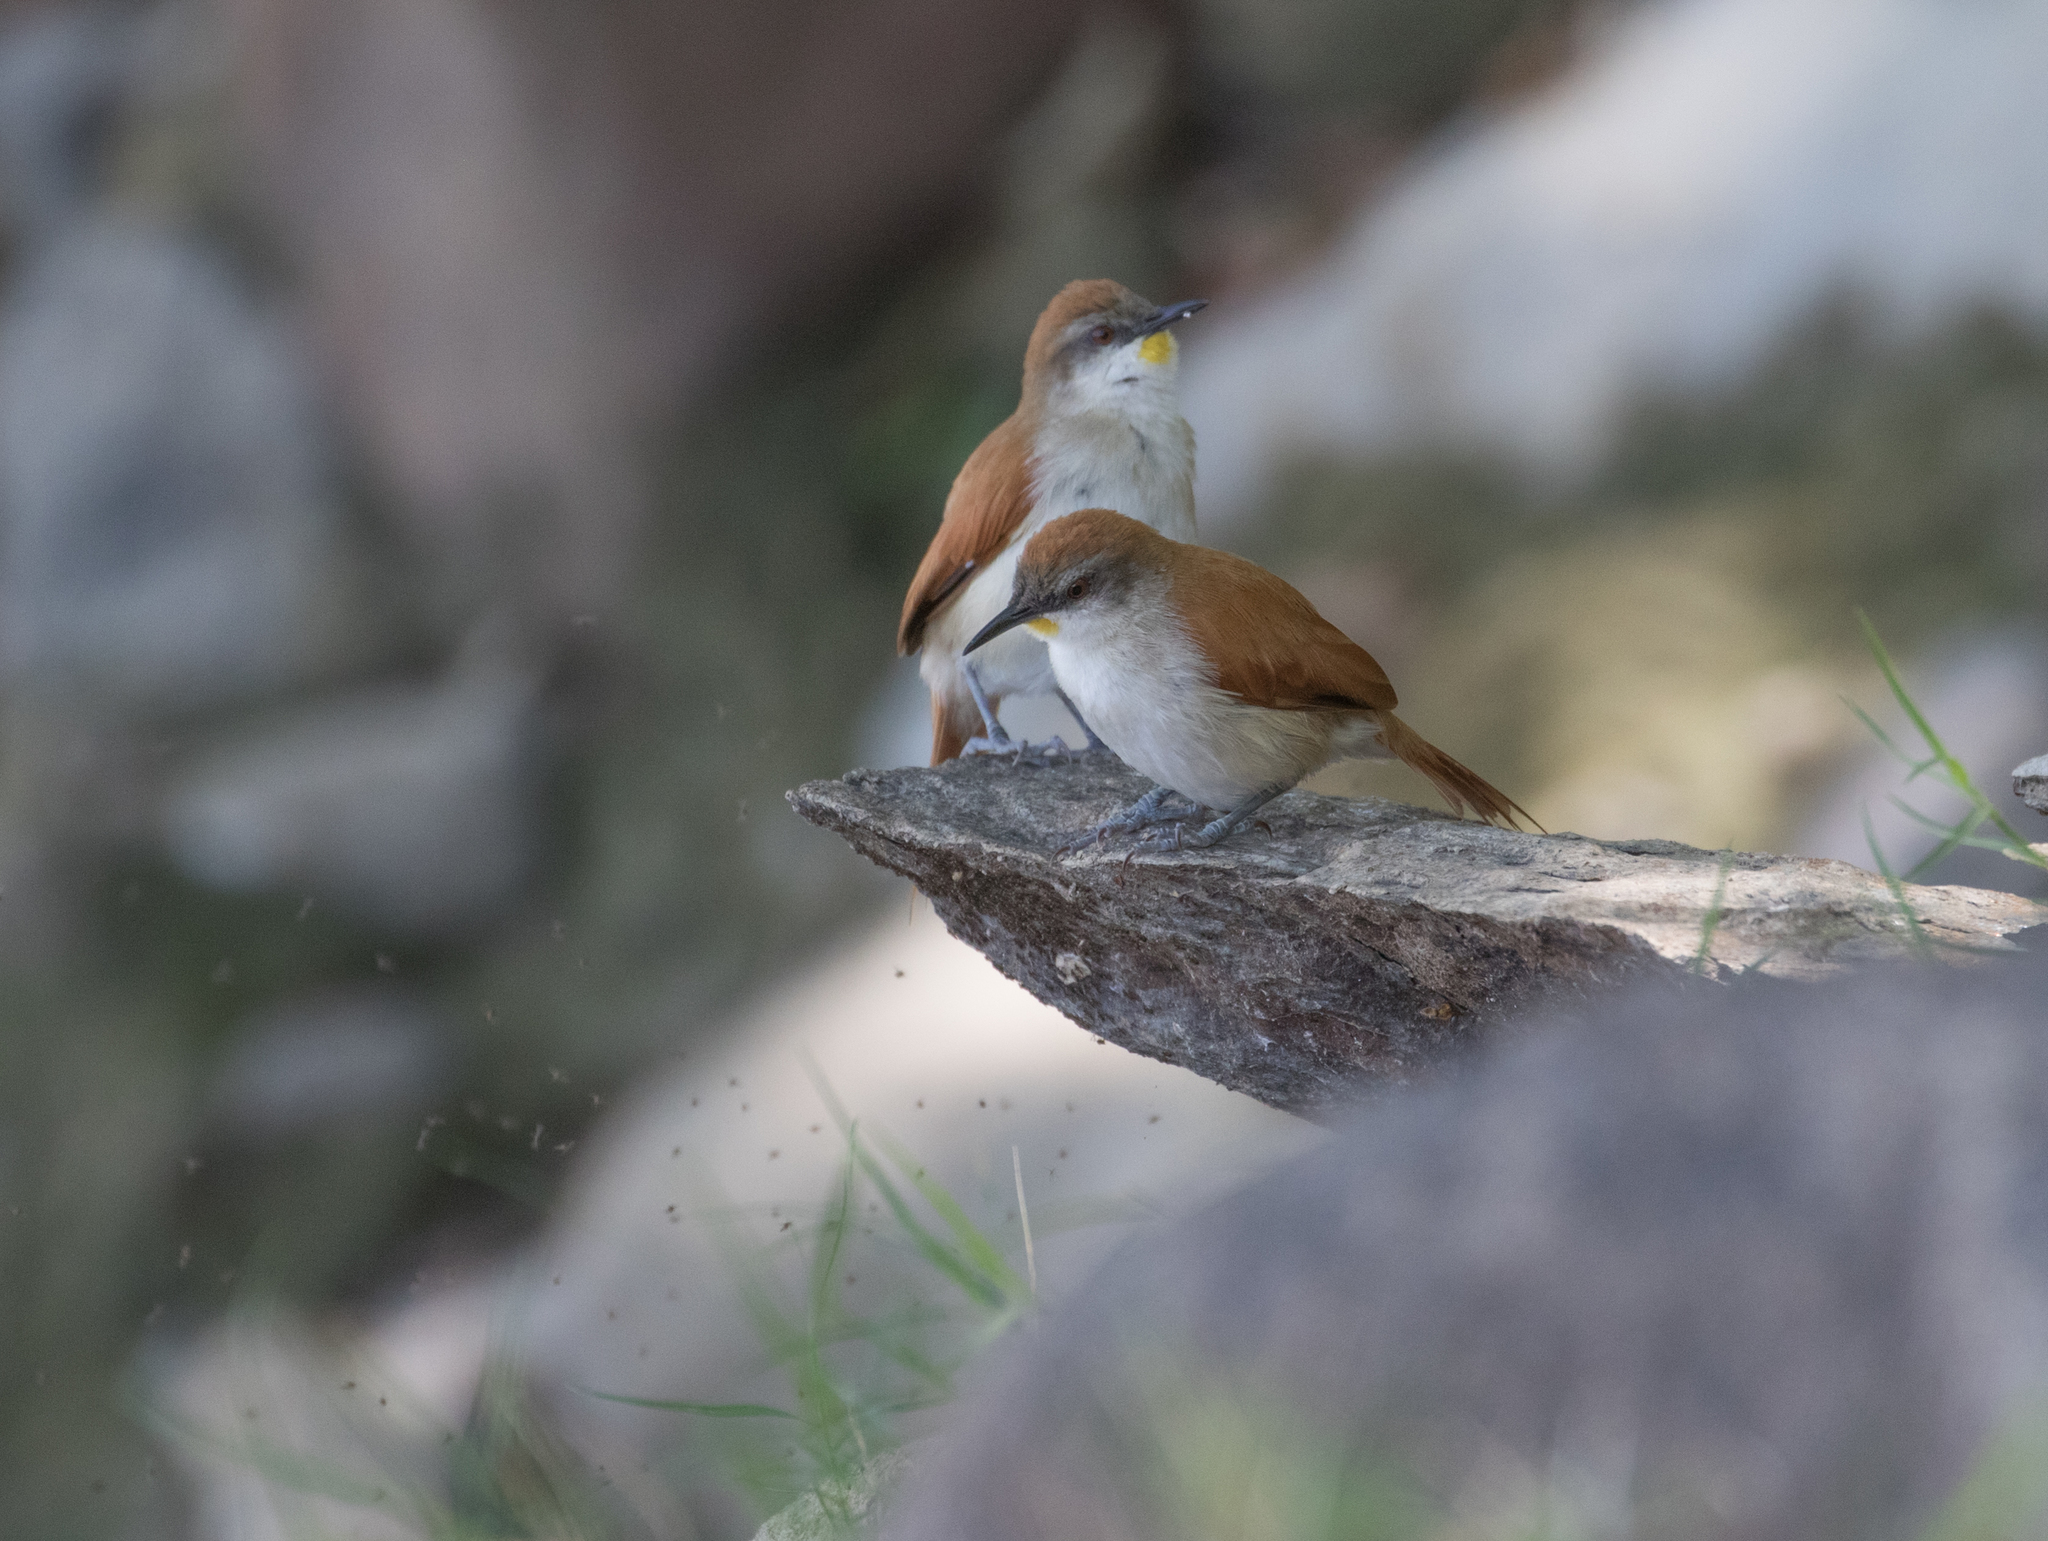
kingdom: Animalia
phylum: Chordata
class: Aves
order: Passeriformes
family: Furnariidae
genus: Certhiaxis
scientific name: Certhiaxis cinnamomeus
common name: Yellow-chinned spinetail
